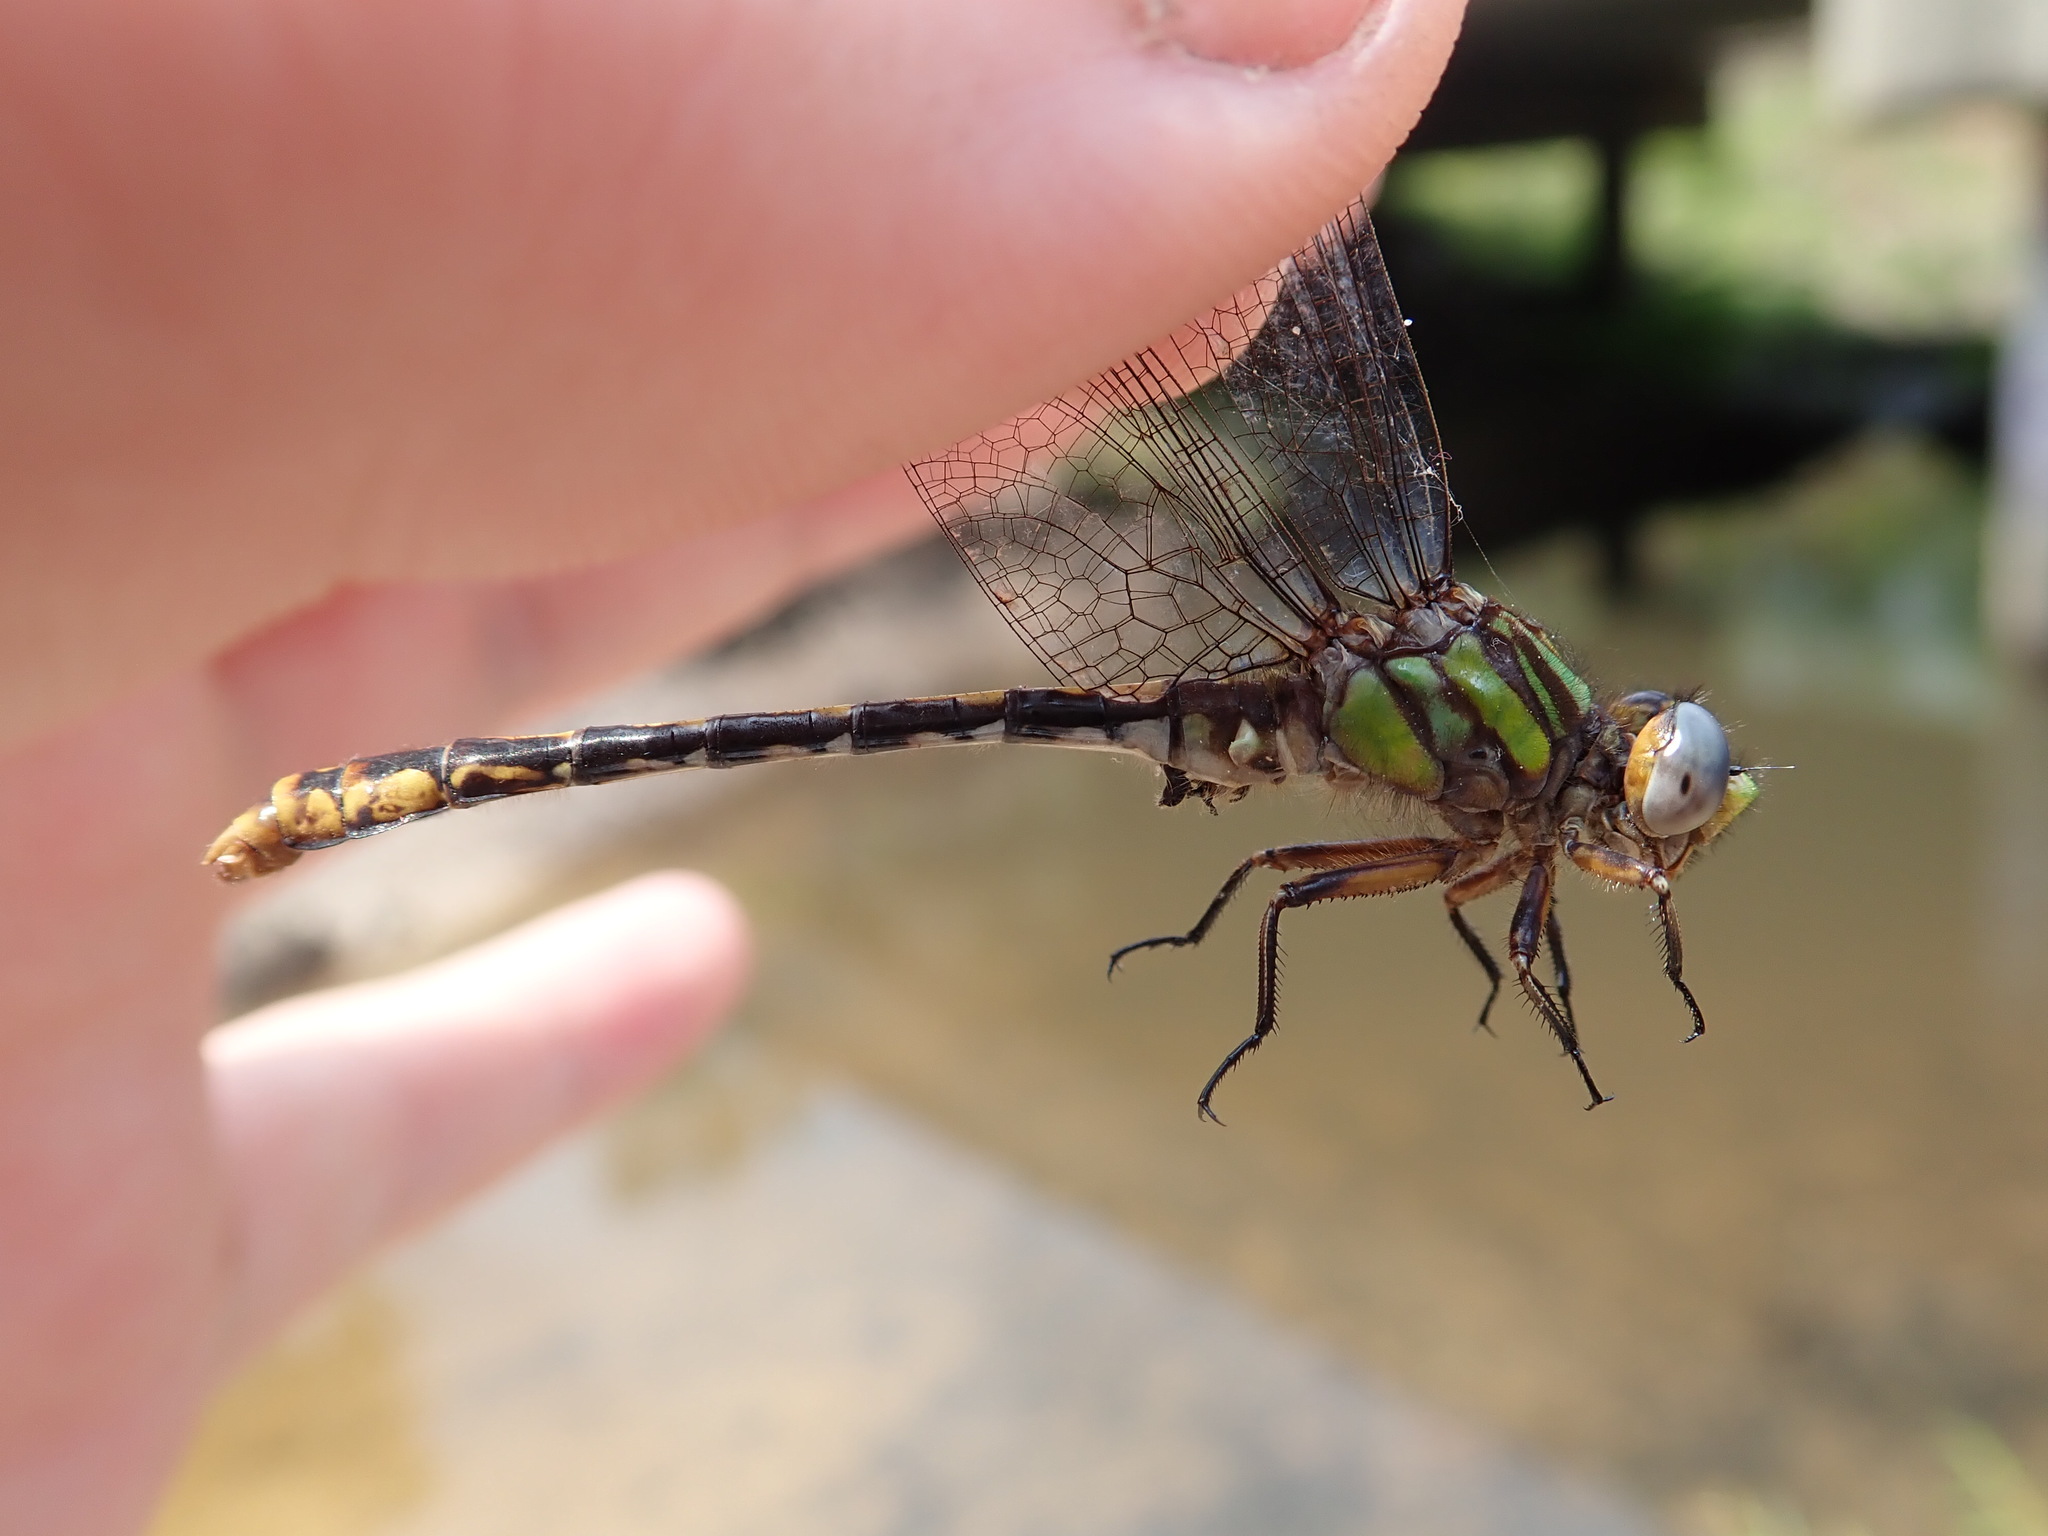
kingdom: Animalia
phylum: Arthropoda
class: Insecta
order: Odonata
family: Gomphidae
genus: Ophiogomphus
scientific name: Ophiogomphus australis
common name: Southern snaketail
